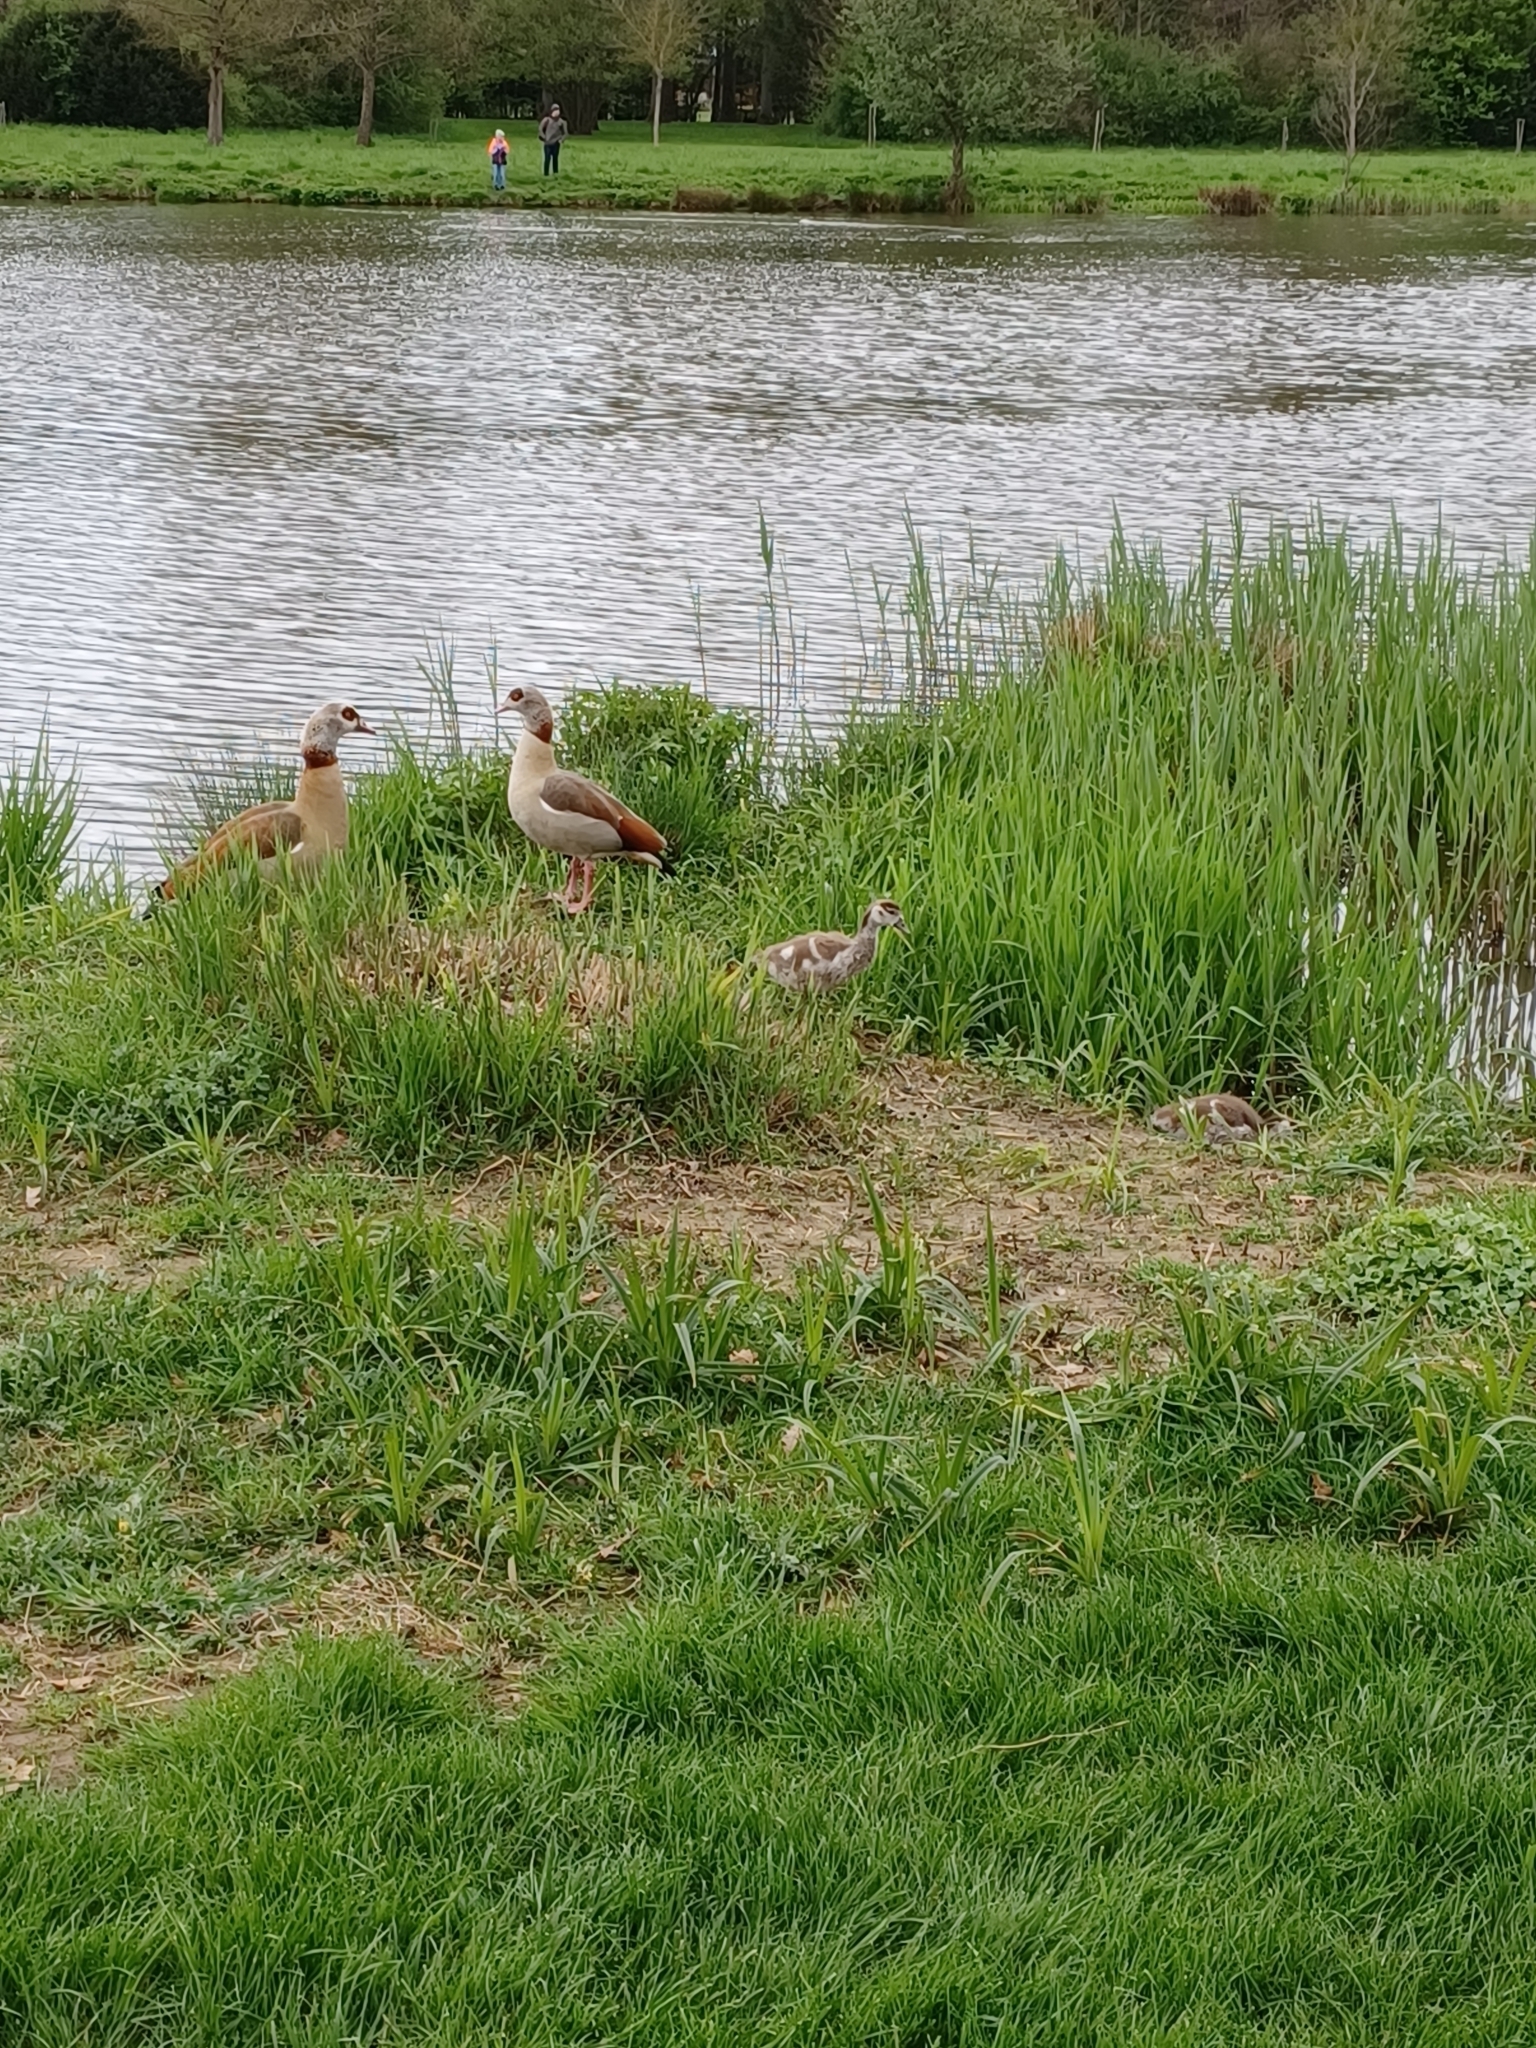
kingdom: Animalia
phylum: Chordata
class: Aves
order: Anseriformes
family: Anatidae
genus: Alopochen
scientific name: Alopochen aegyptiaca
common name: Egyptian goose
